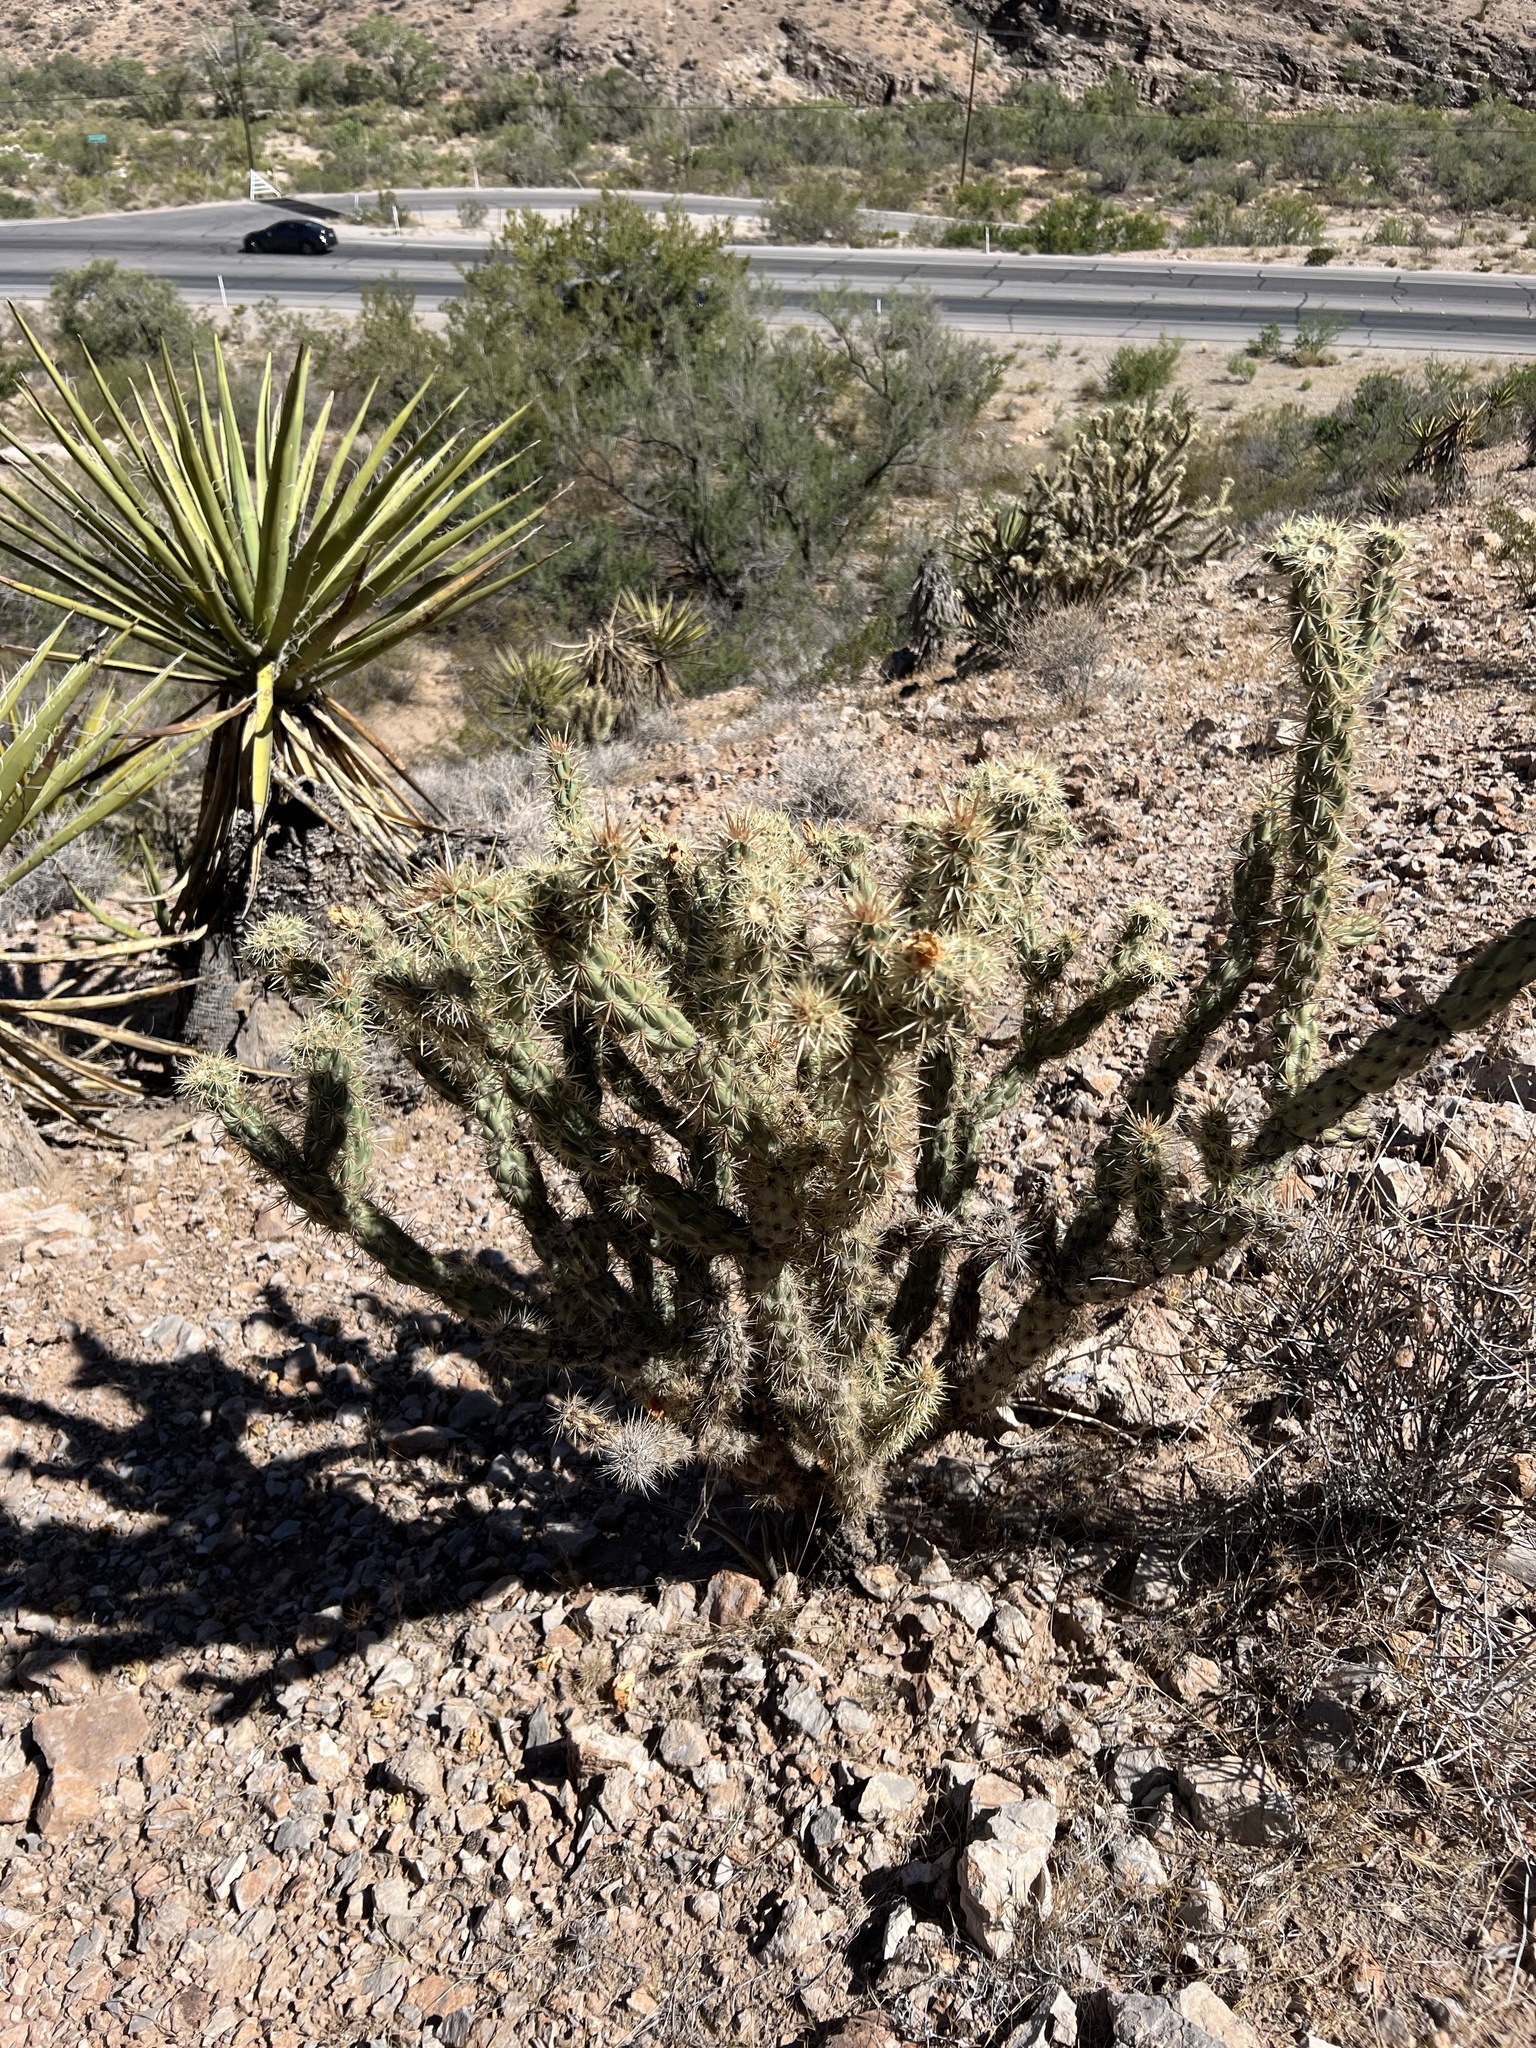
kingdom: Plantae
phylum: Tracheophyta
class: Magnoliopsida
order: Caryophyllales
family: Cactaceae
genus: Cylindropuntia
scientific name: Cylindropuntia acanthocarpa
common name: Buckhorn cholla
